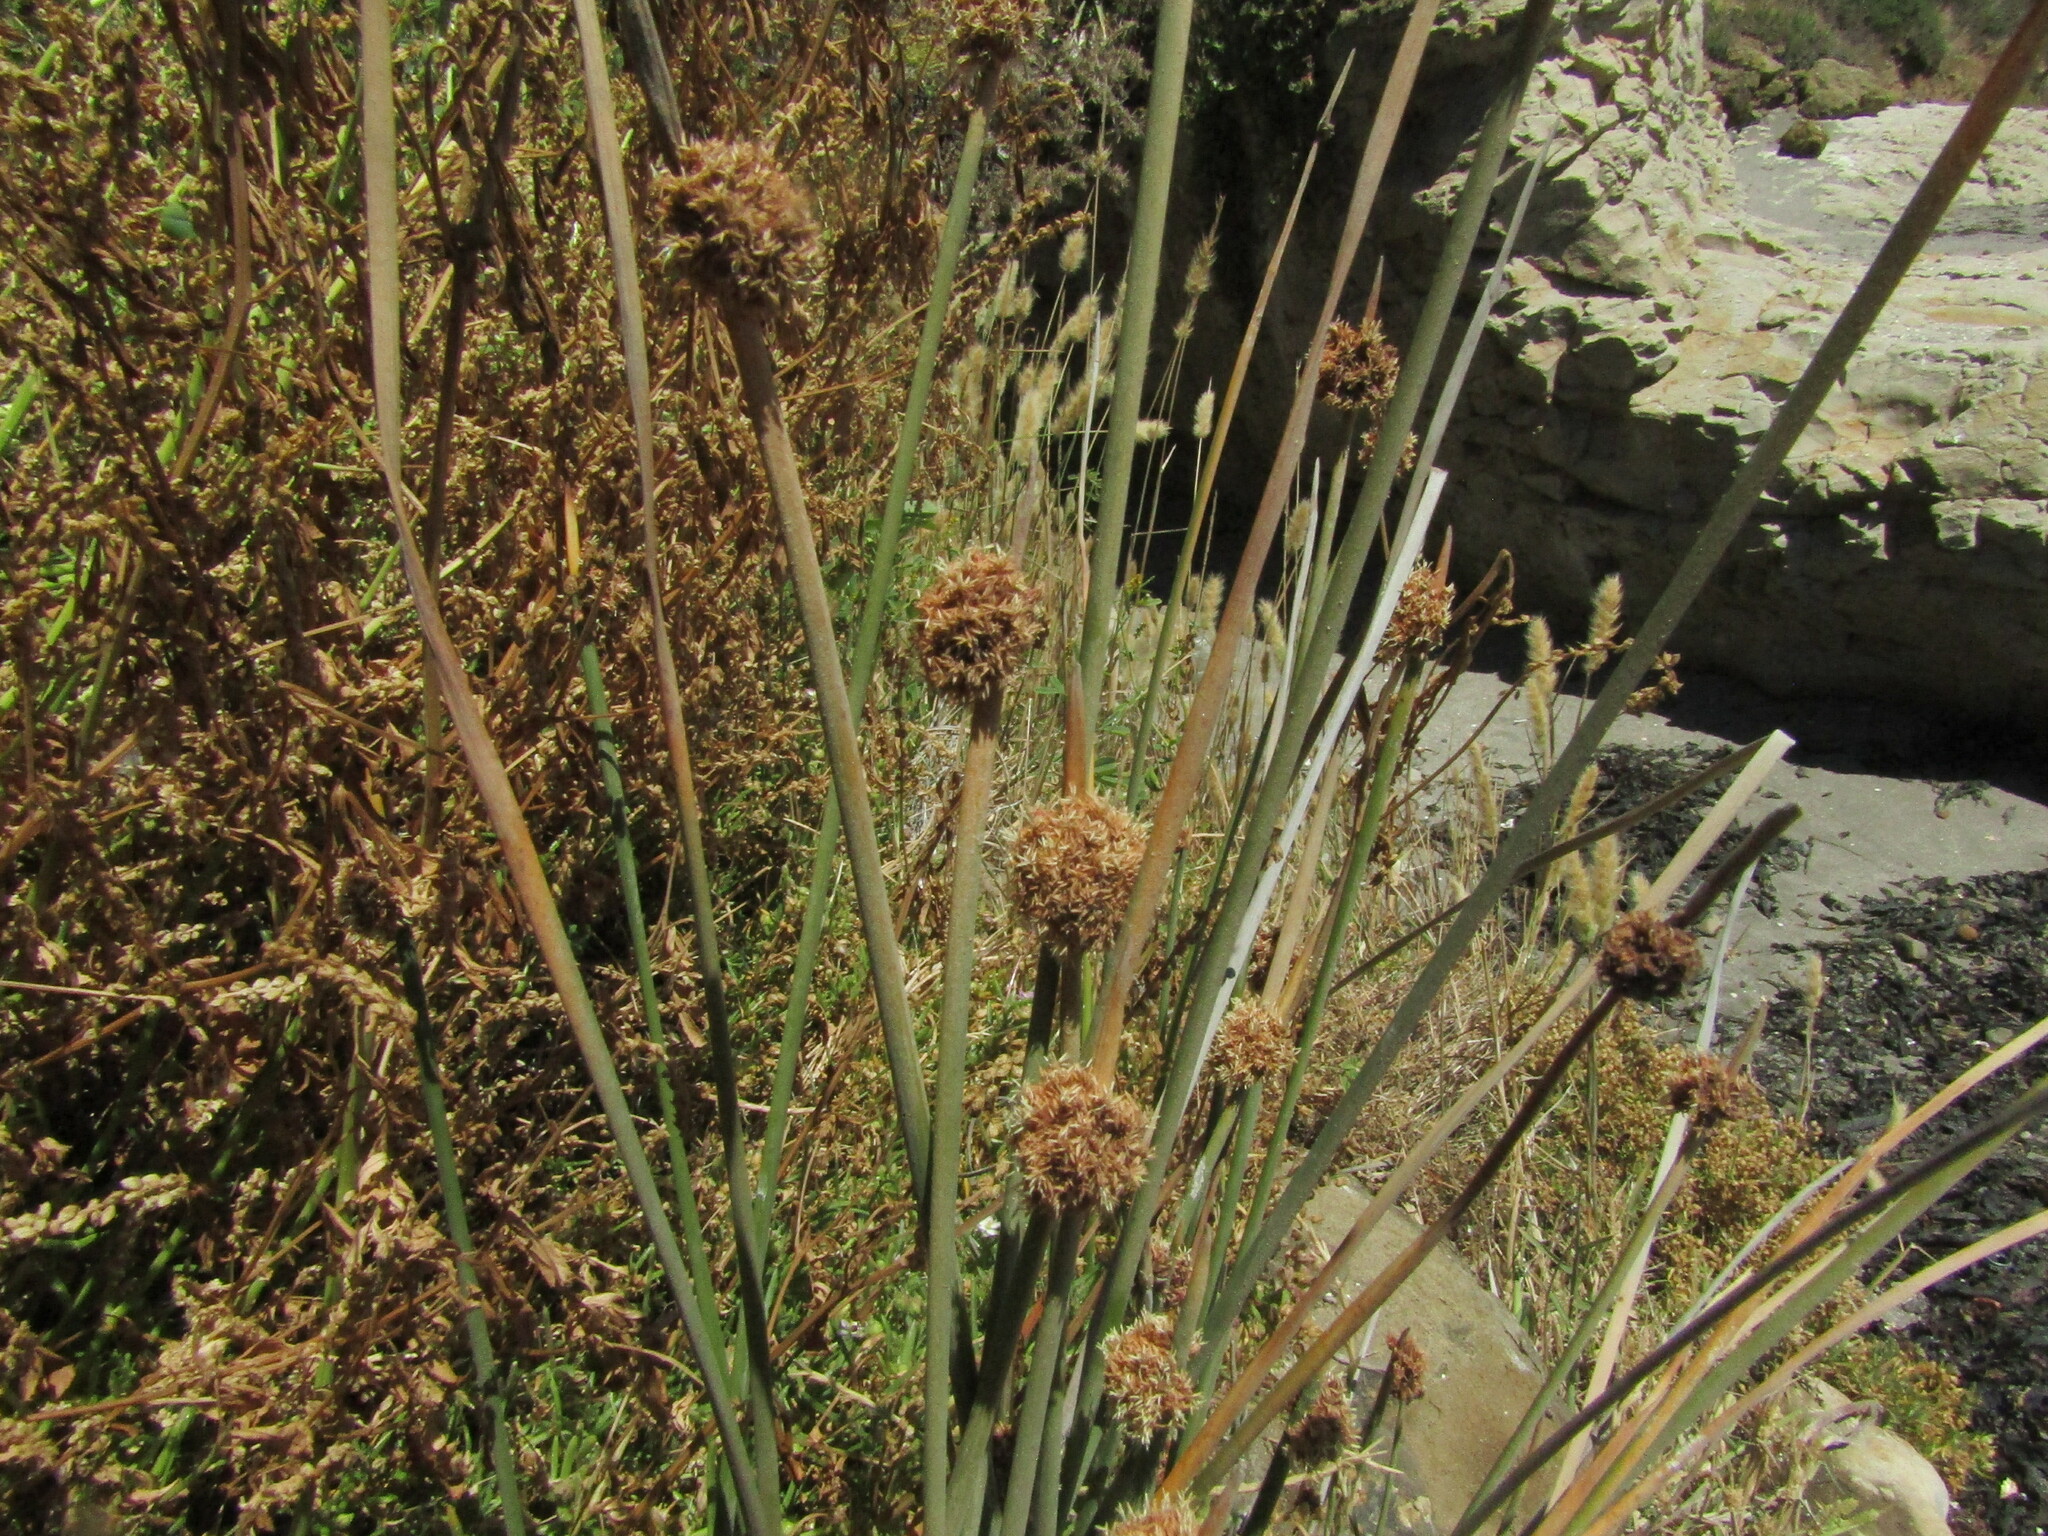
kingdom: Plantae
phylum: Tracheophyta
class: Liliopsida
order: Poales
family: Cyperaceae
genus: Ficinia
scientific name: Ficinia nodosa
